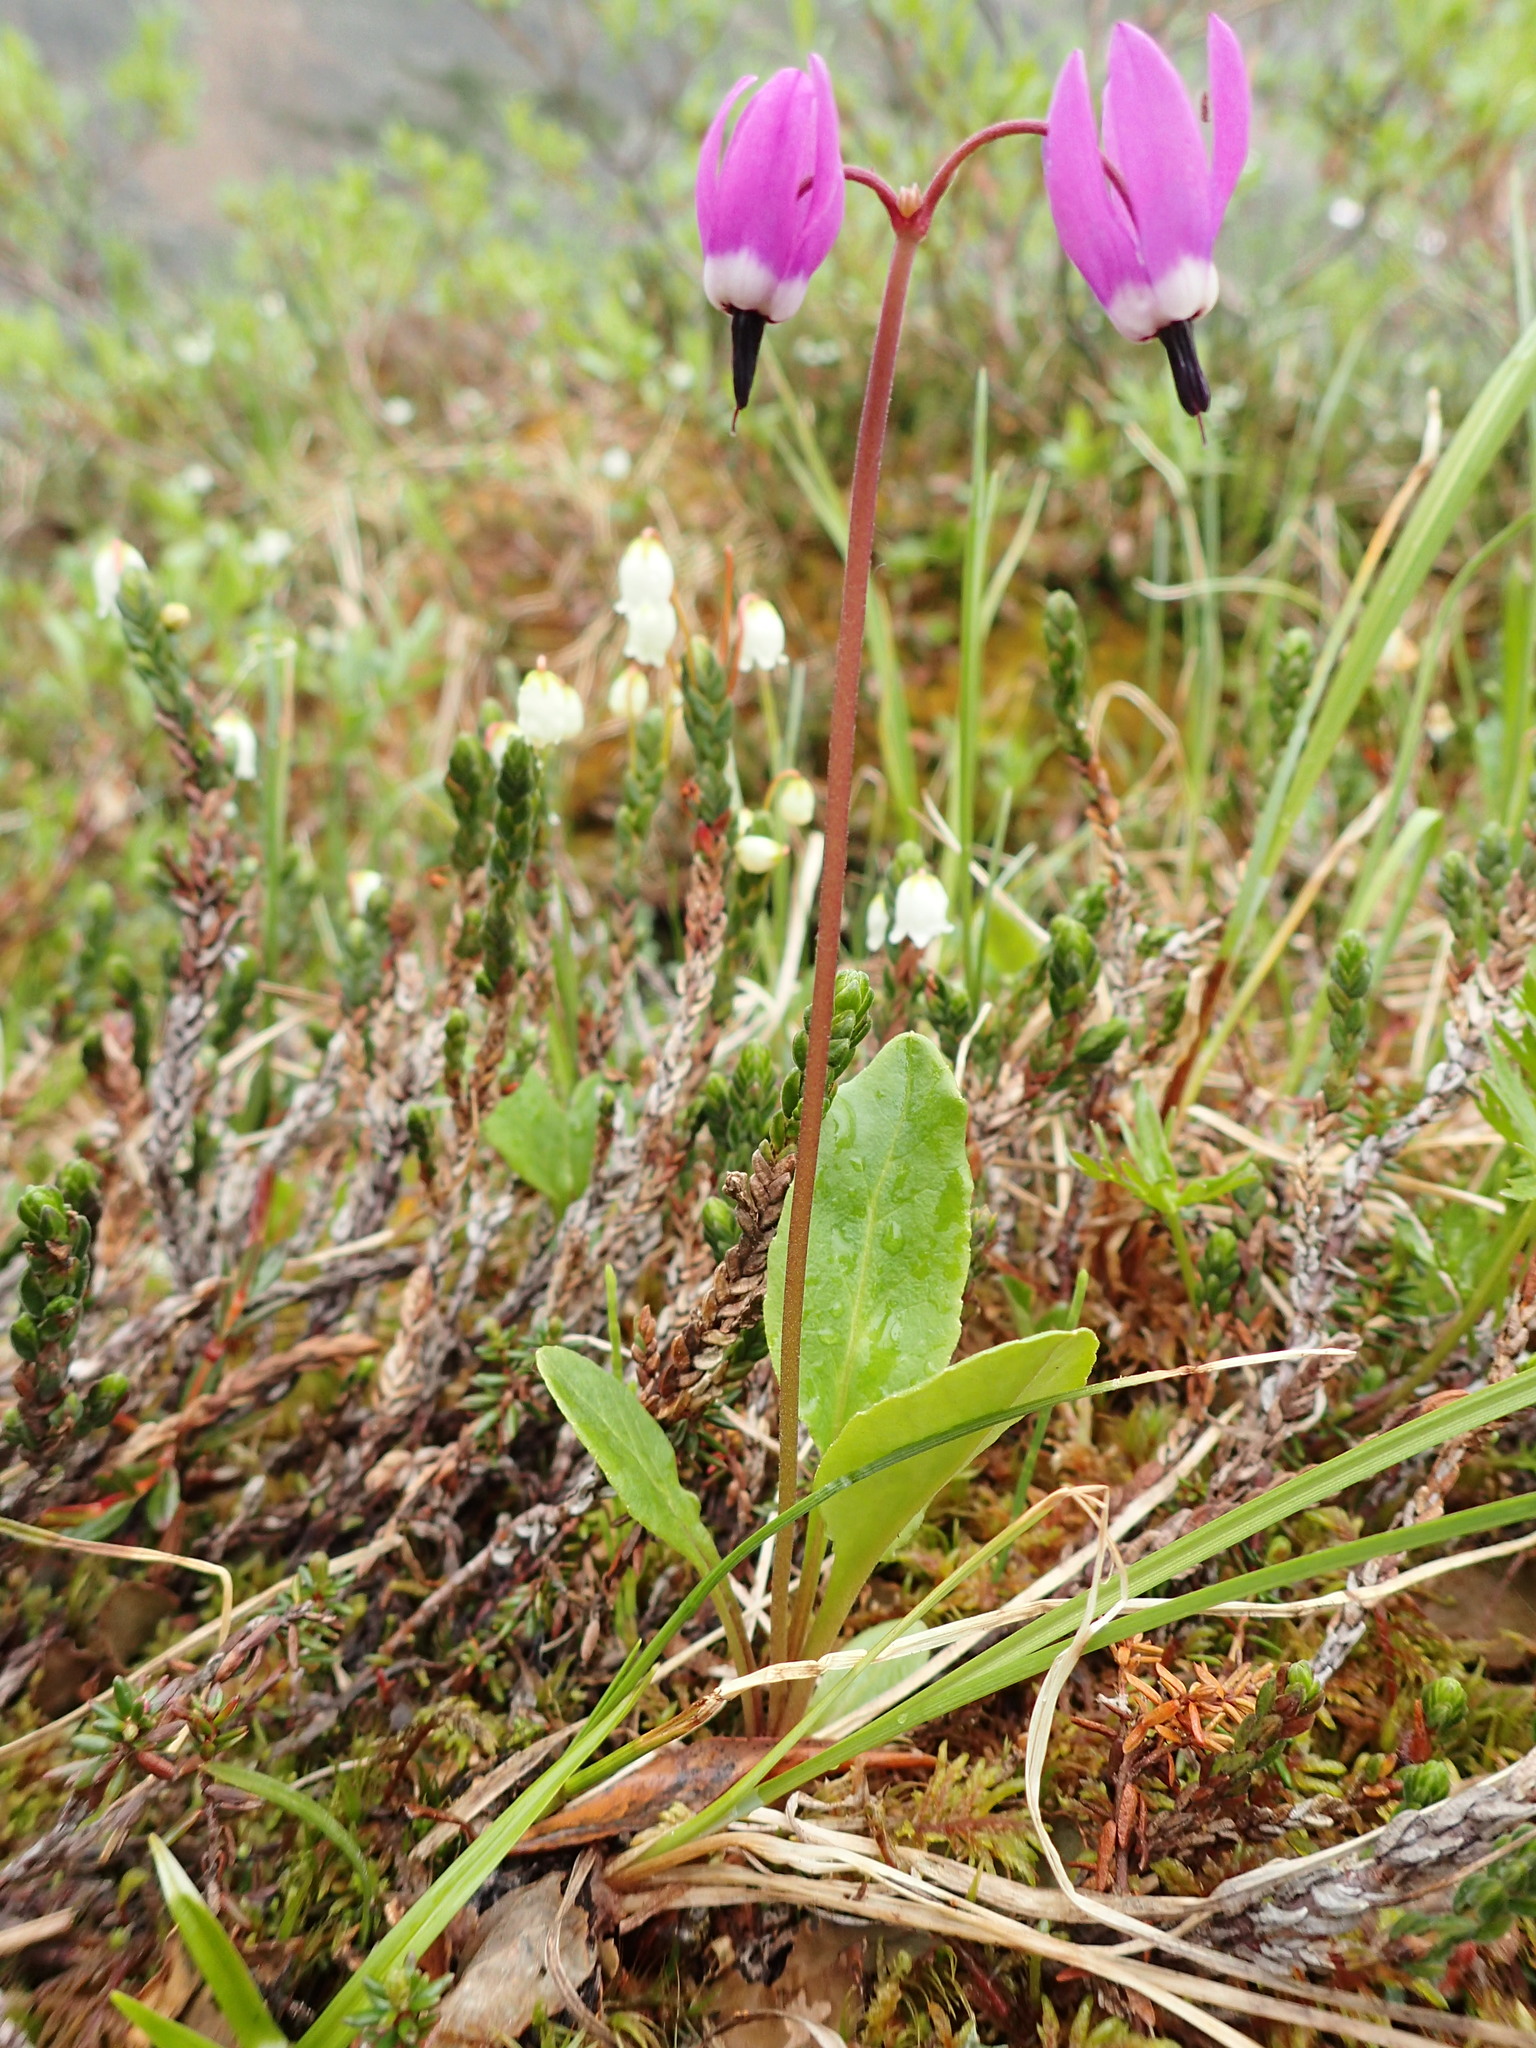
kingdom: Plantae
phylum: Tracheophyta
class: Magnoliopsida
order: Ericales
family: Primulaceae
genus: Dodecatheon
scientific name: Dodecatheon frigidum
